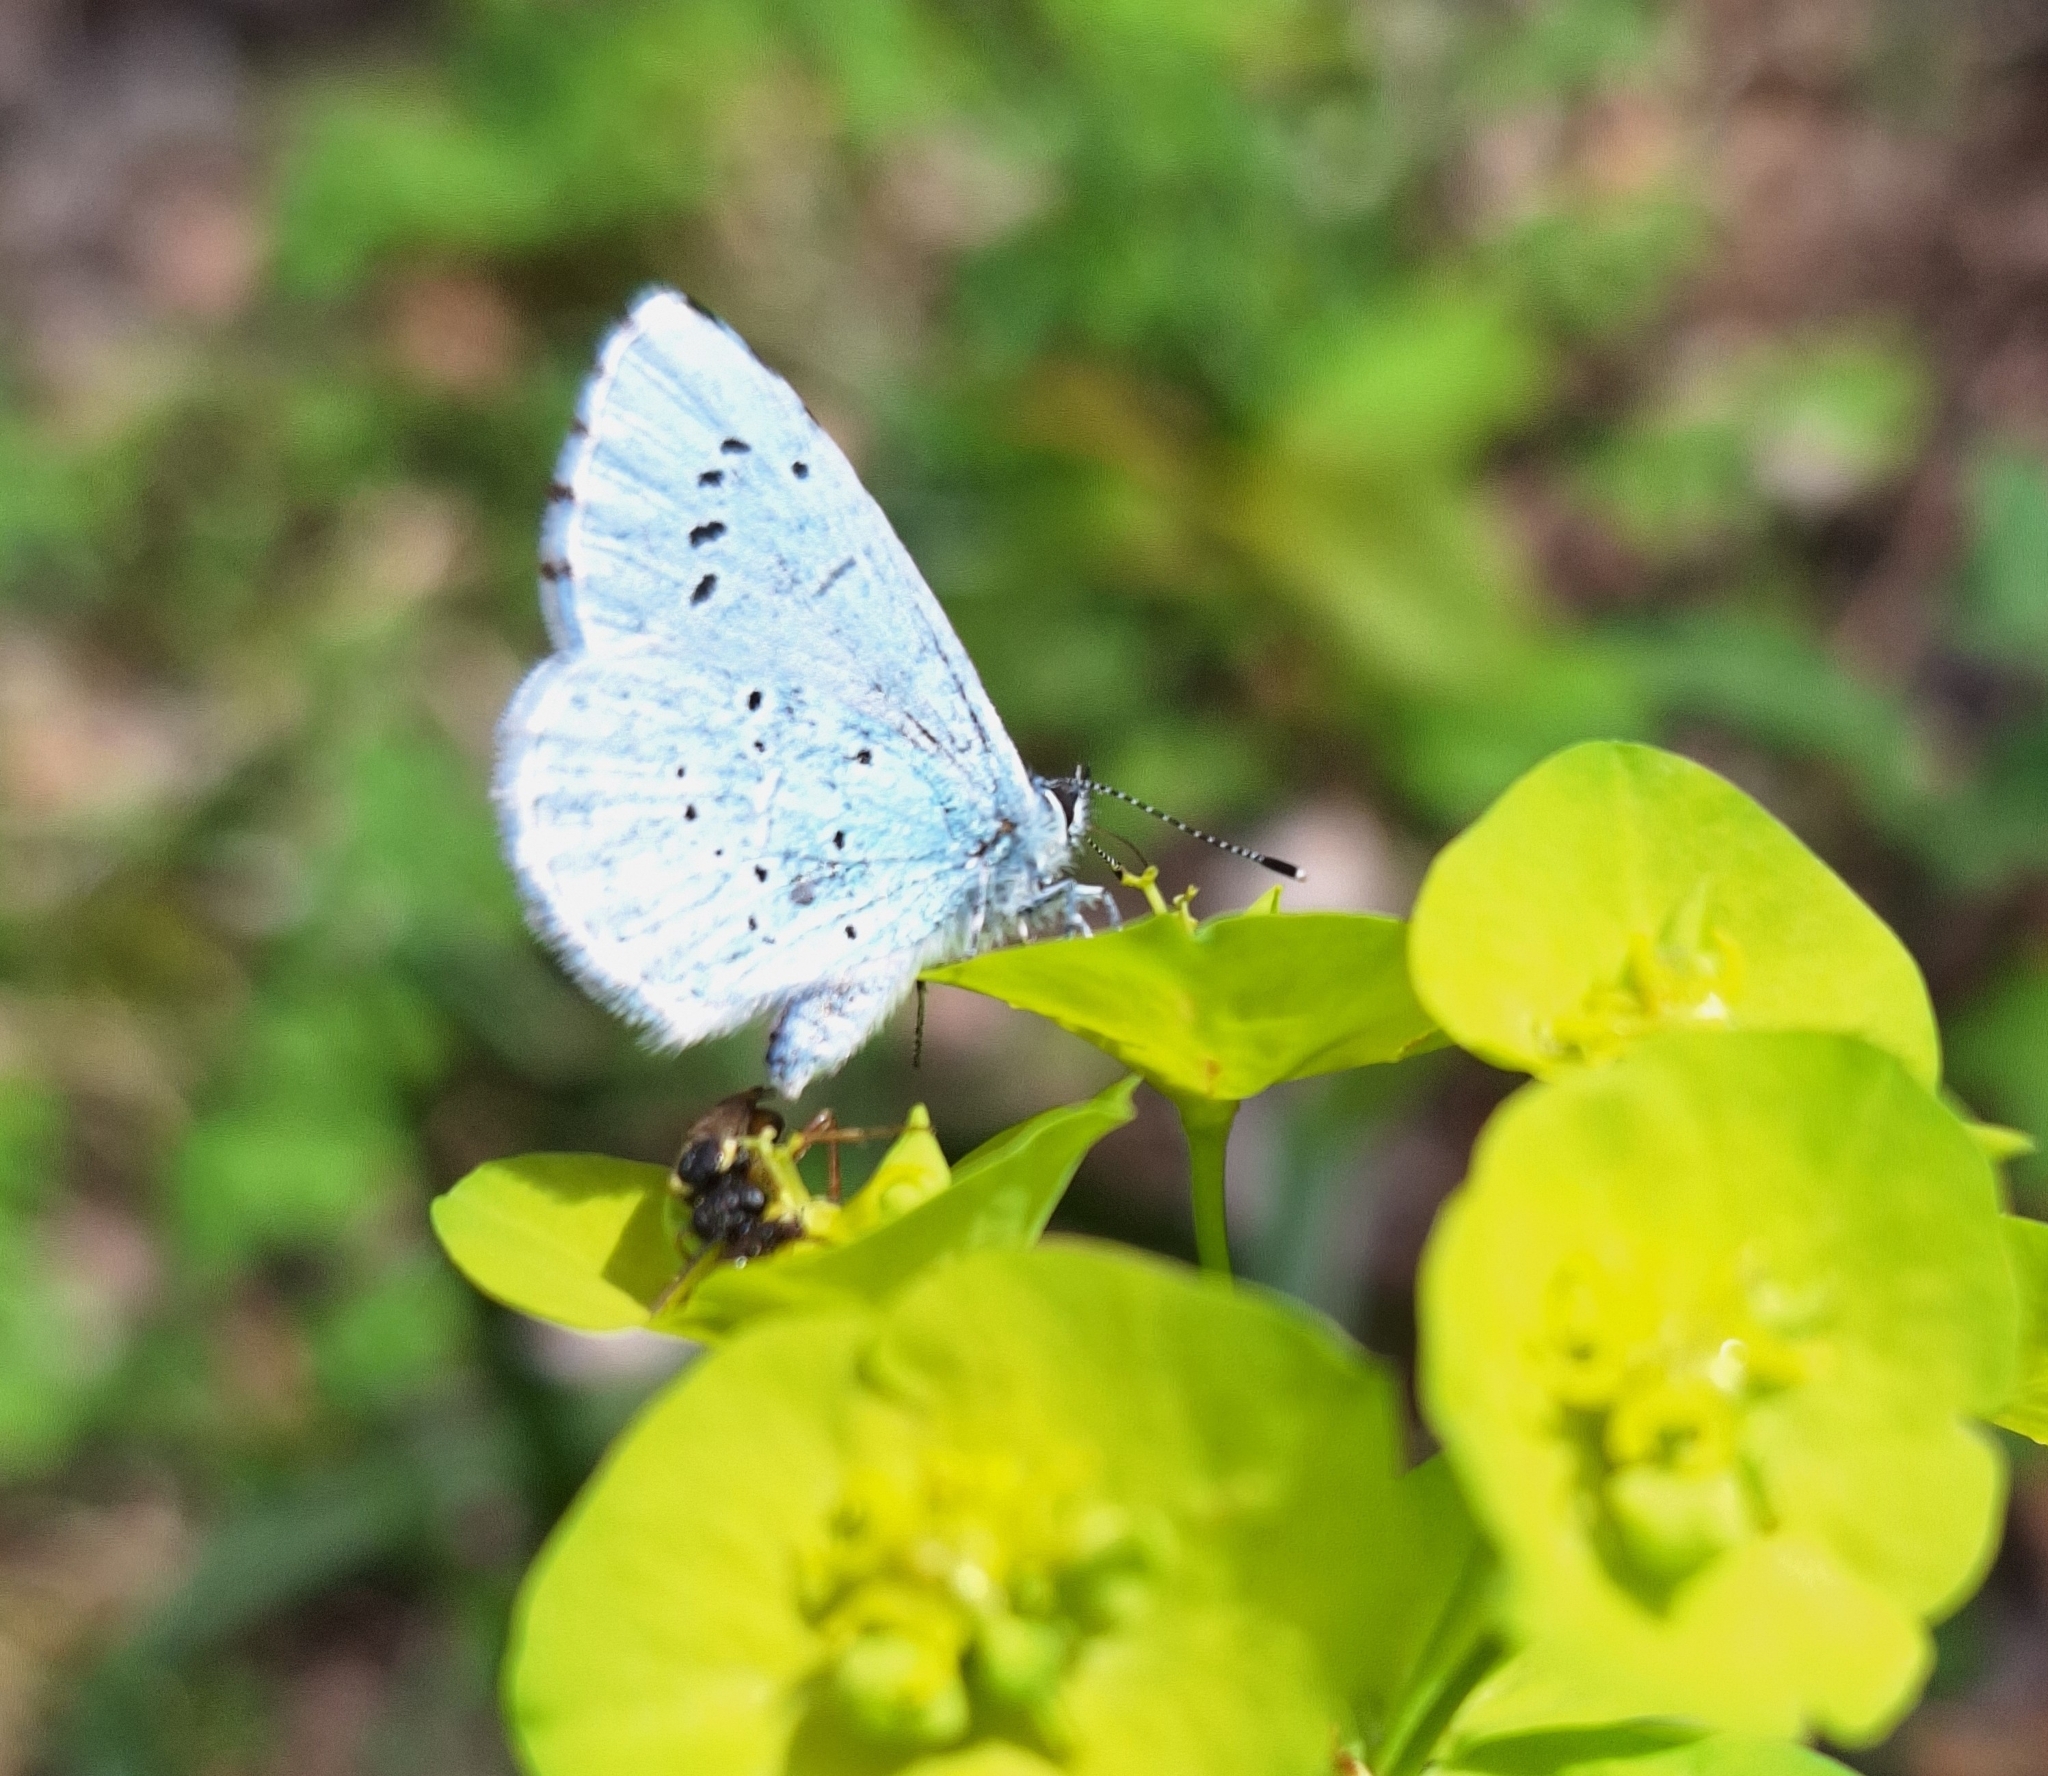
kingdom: Animalia
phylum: Arthropoda
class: Insecta
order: Lepidoptera
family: Lycaenidae
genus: Celastrina
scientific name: Celastrina argiolus
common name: Holly blue
